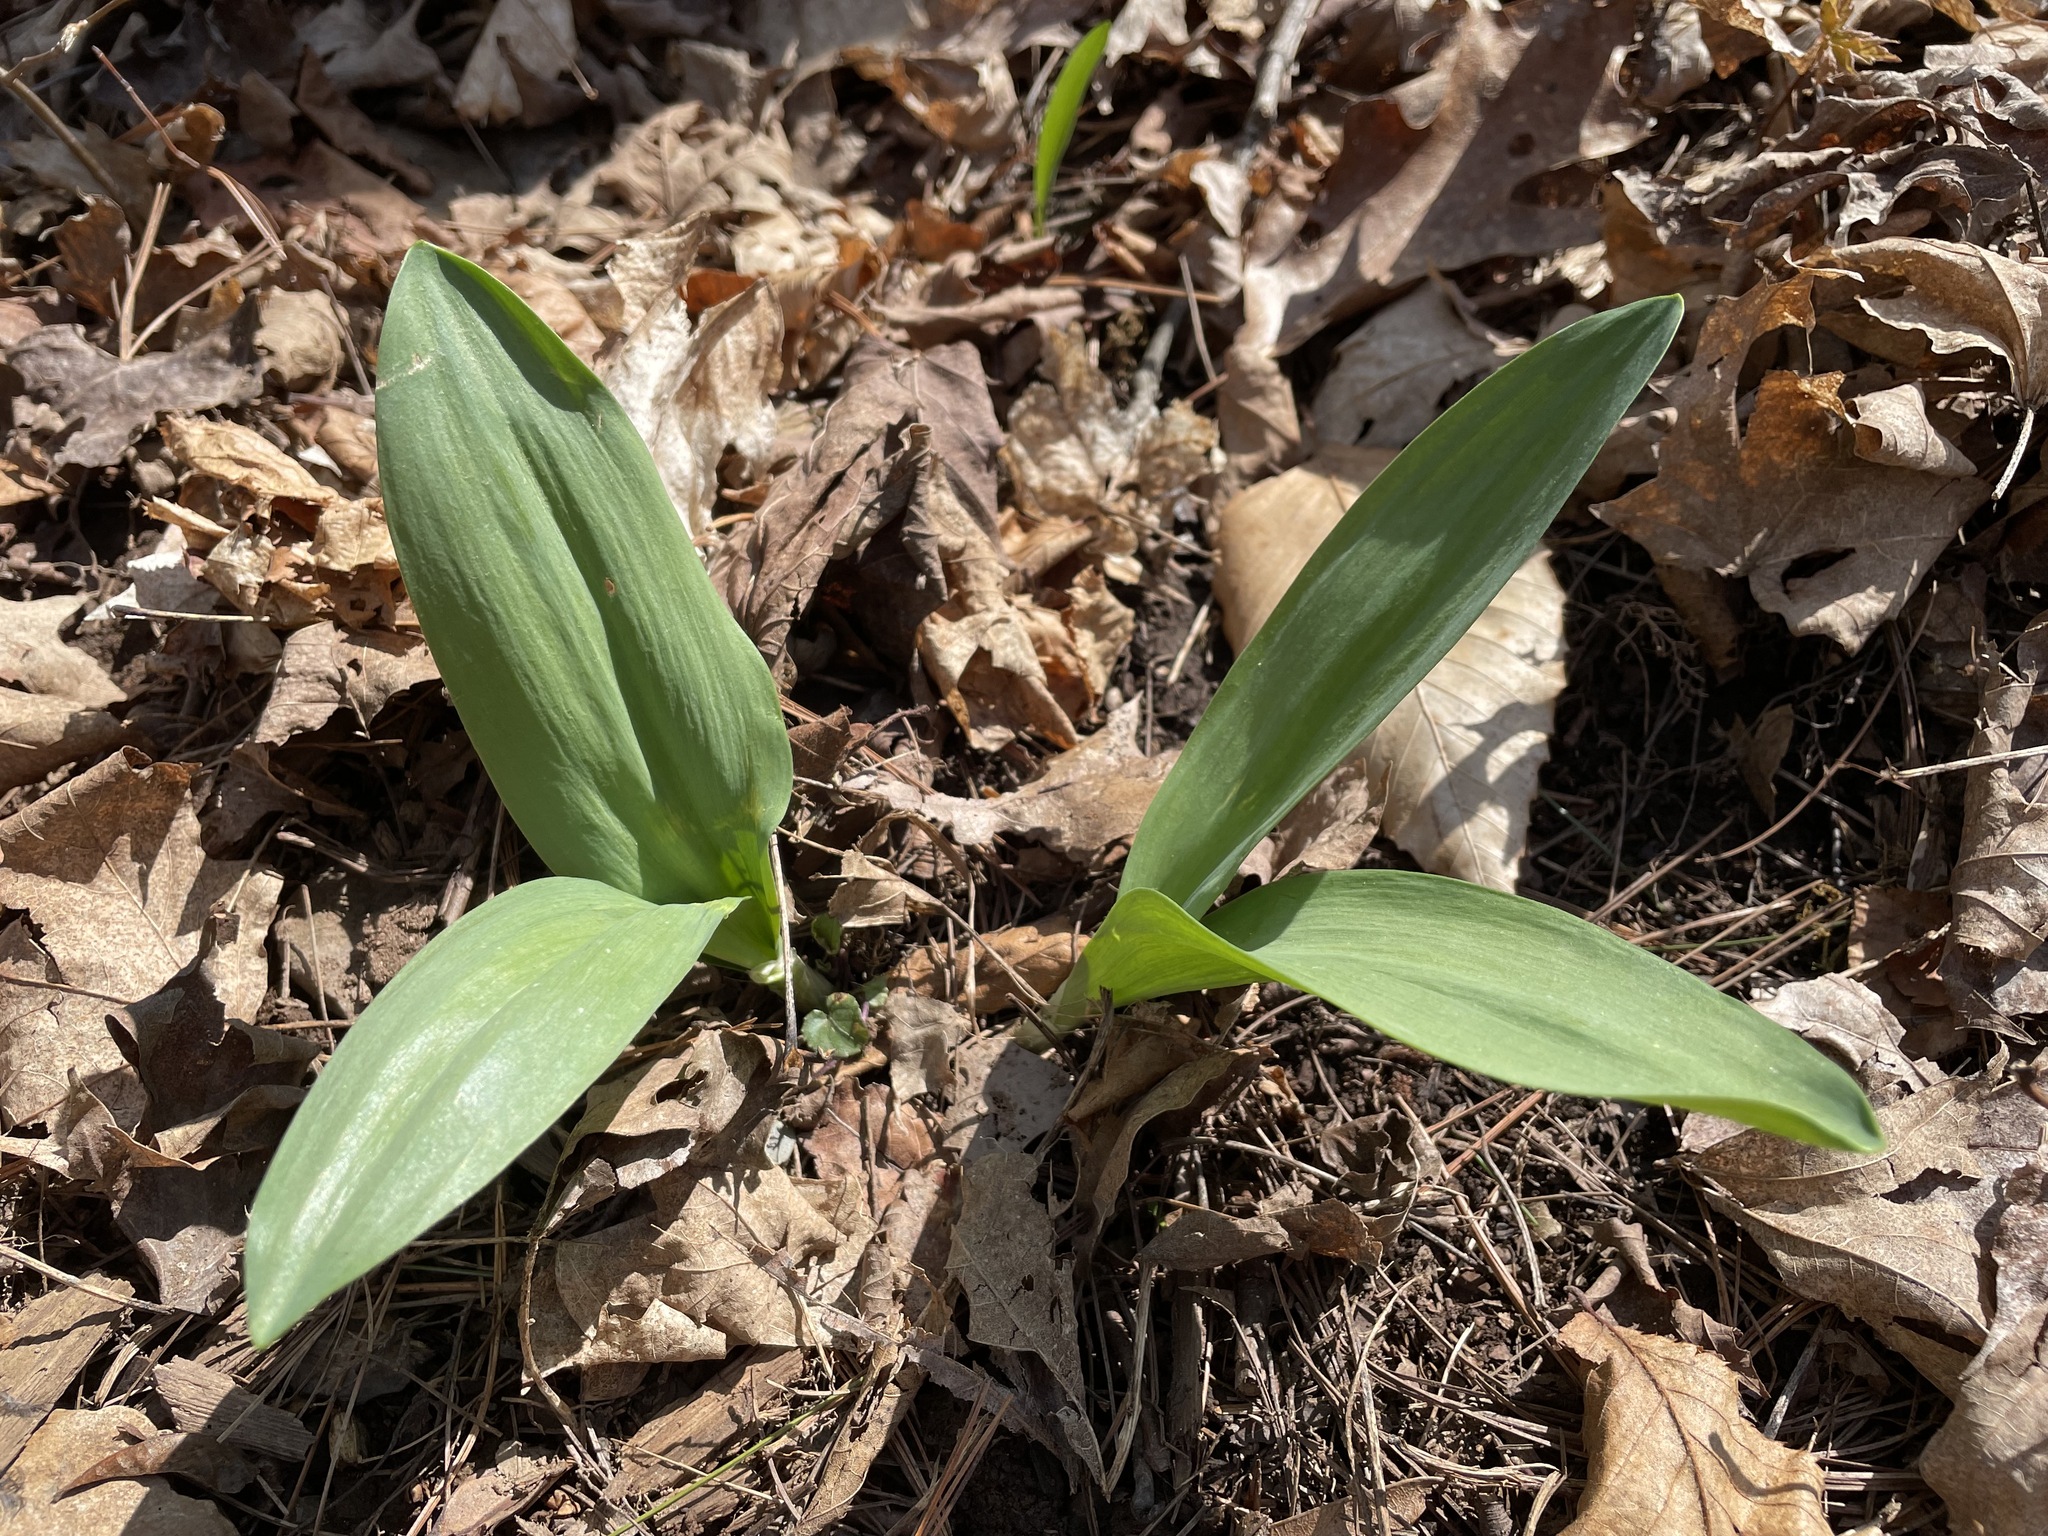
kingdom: Plantae
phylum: Tracheophyta
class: Liliopsida
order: Asparagales
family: Amaryllidaceae
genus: Allium
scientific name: Allium tricoccum
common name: Ramp
